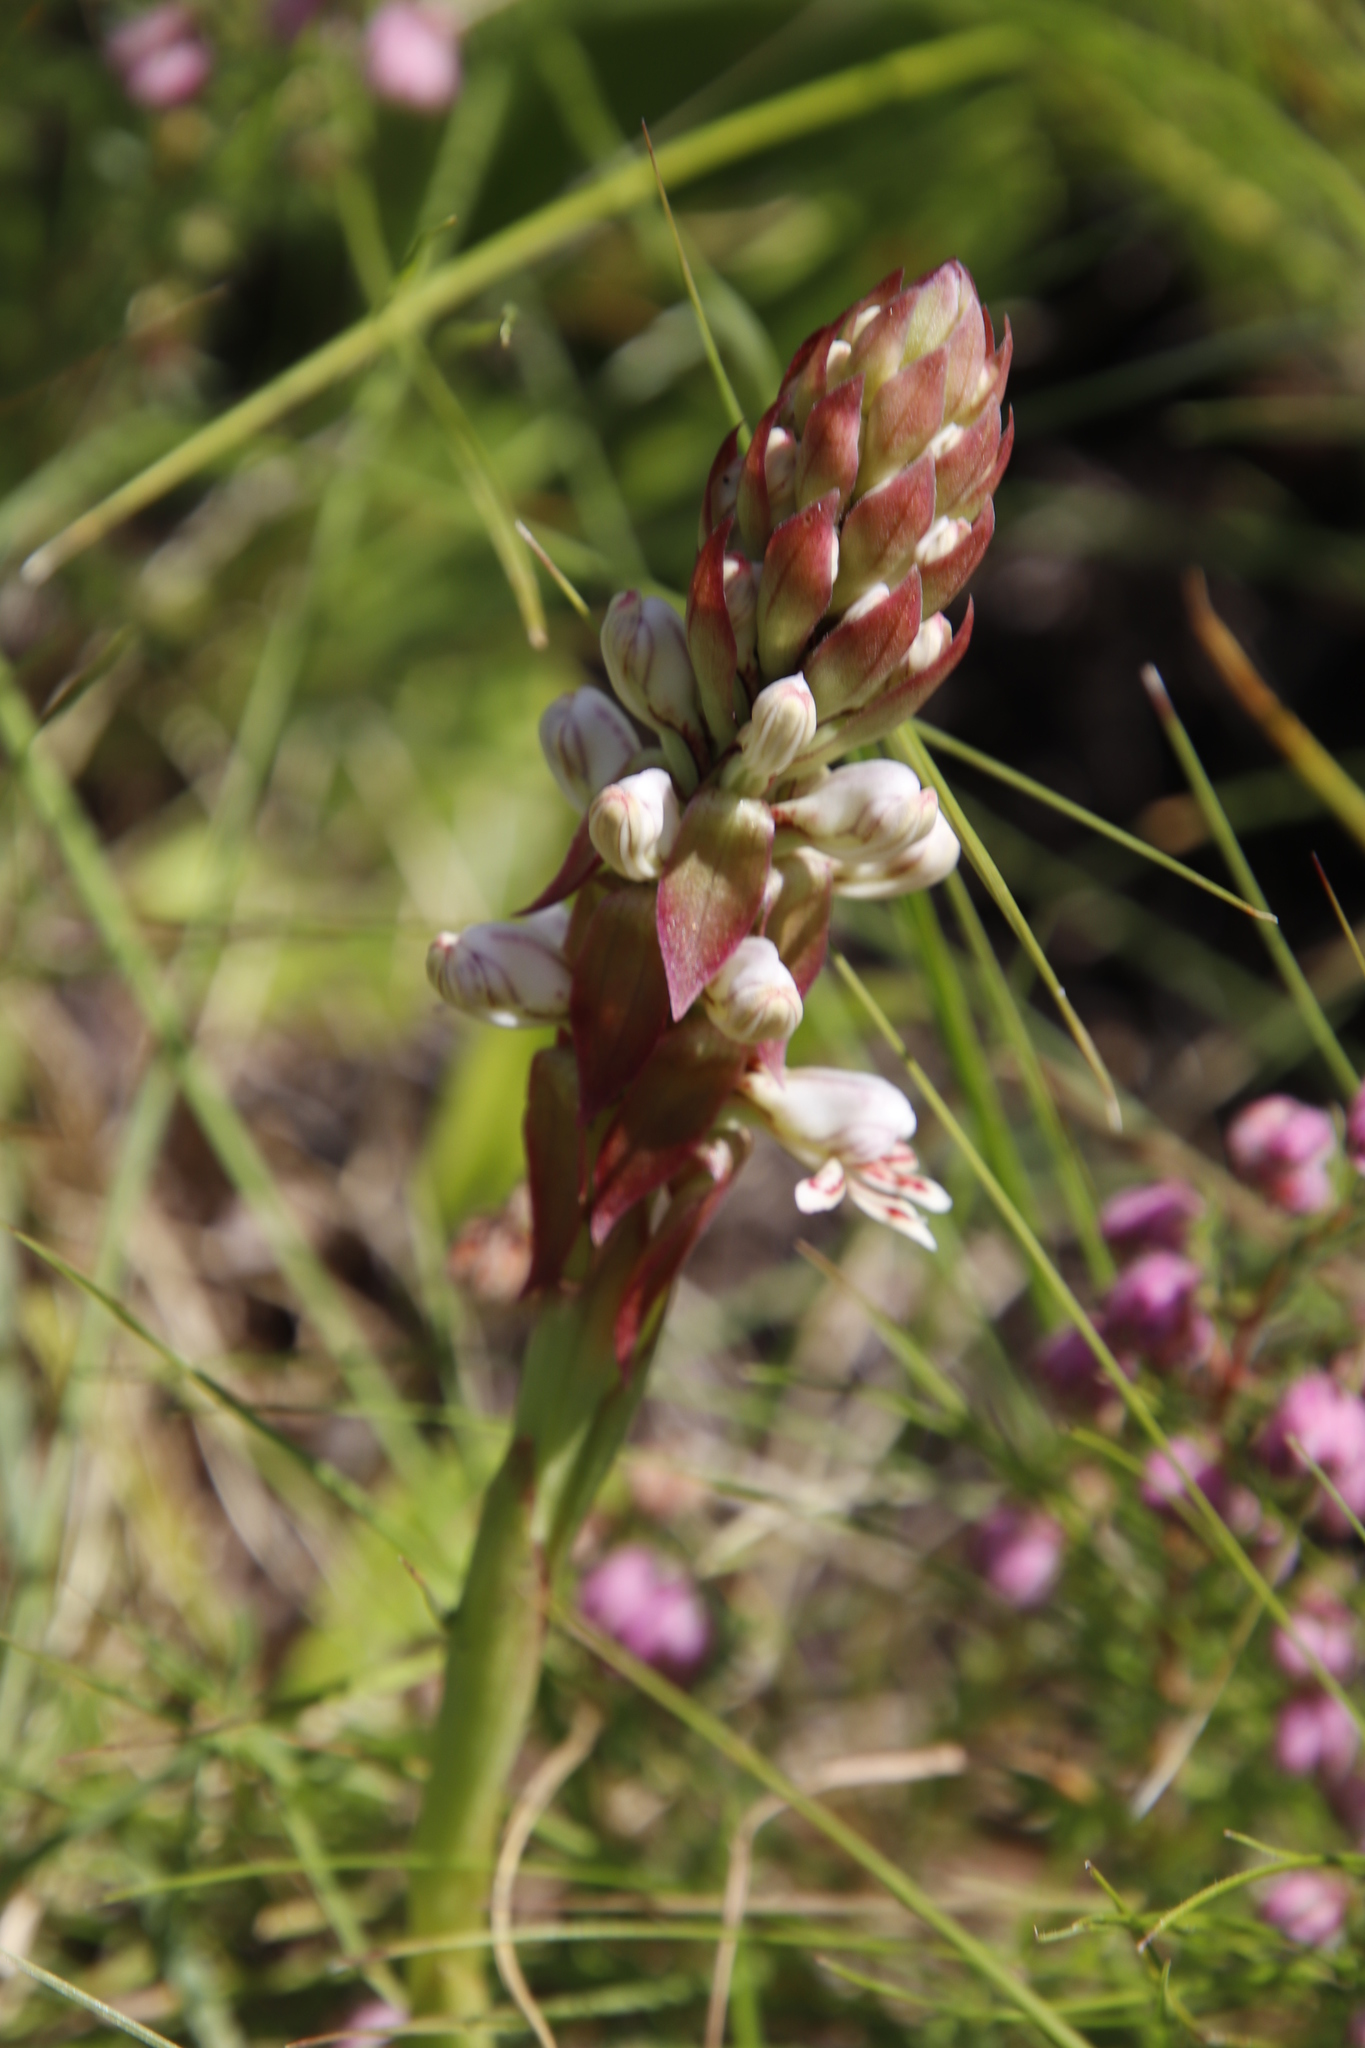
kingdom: Plantae
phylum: Tracheophyta
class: Liliopsida
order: Asparagales
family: Orchidaceae
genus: Satyrium
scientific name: Satyrium cristatum
